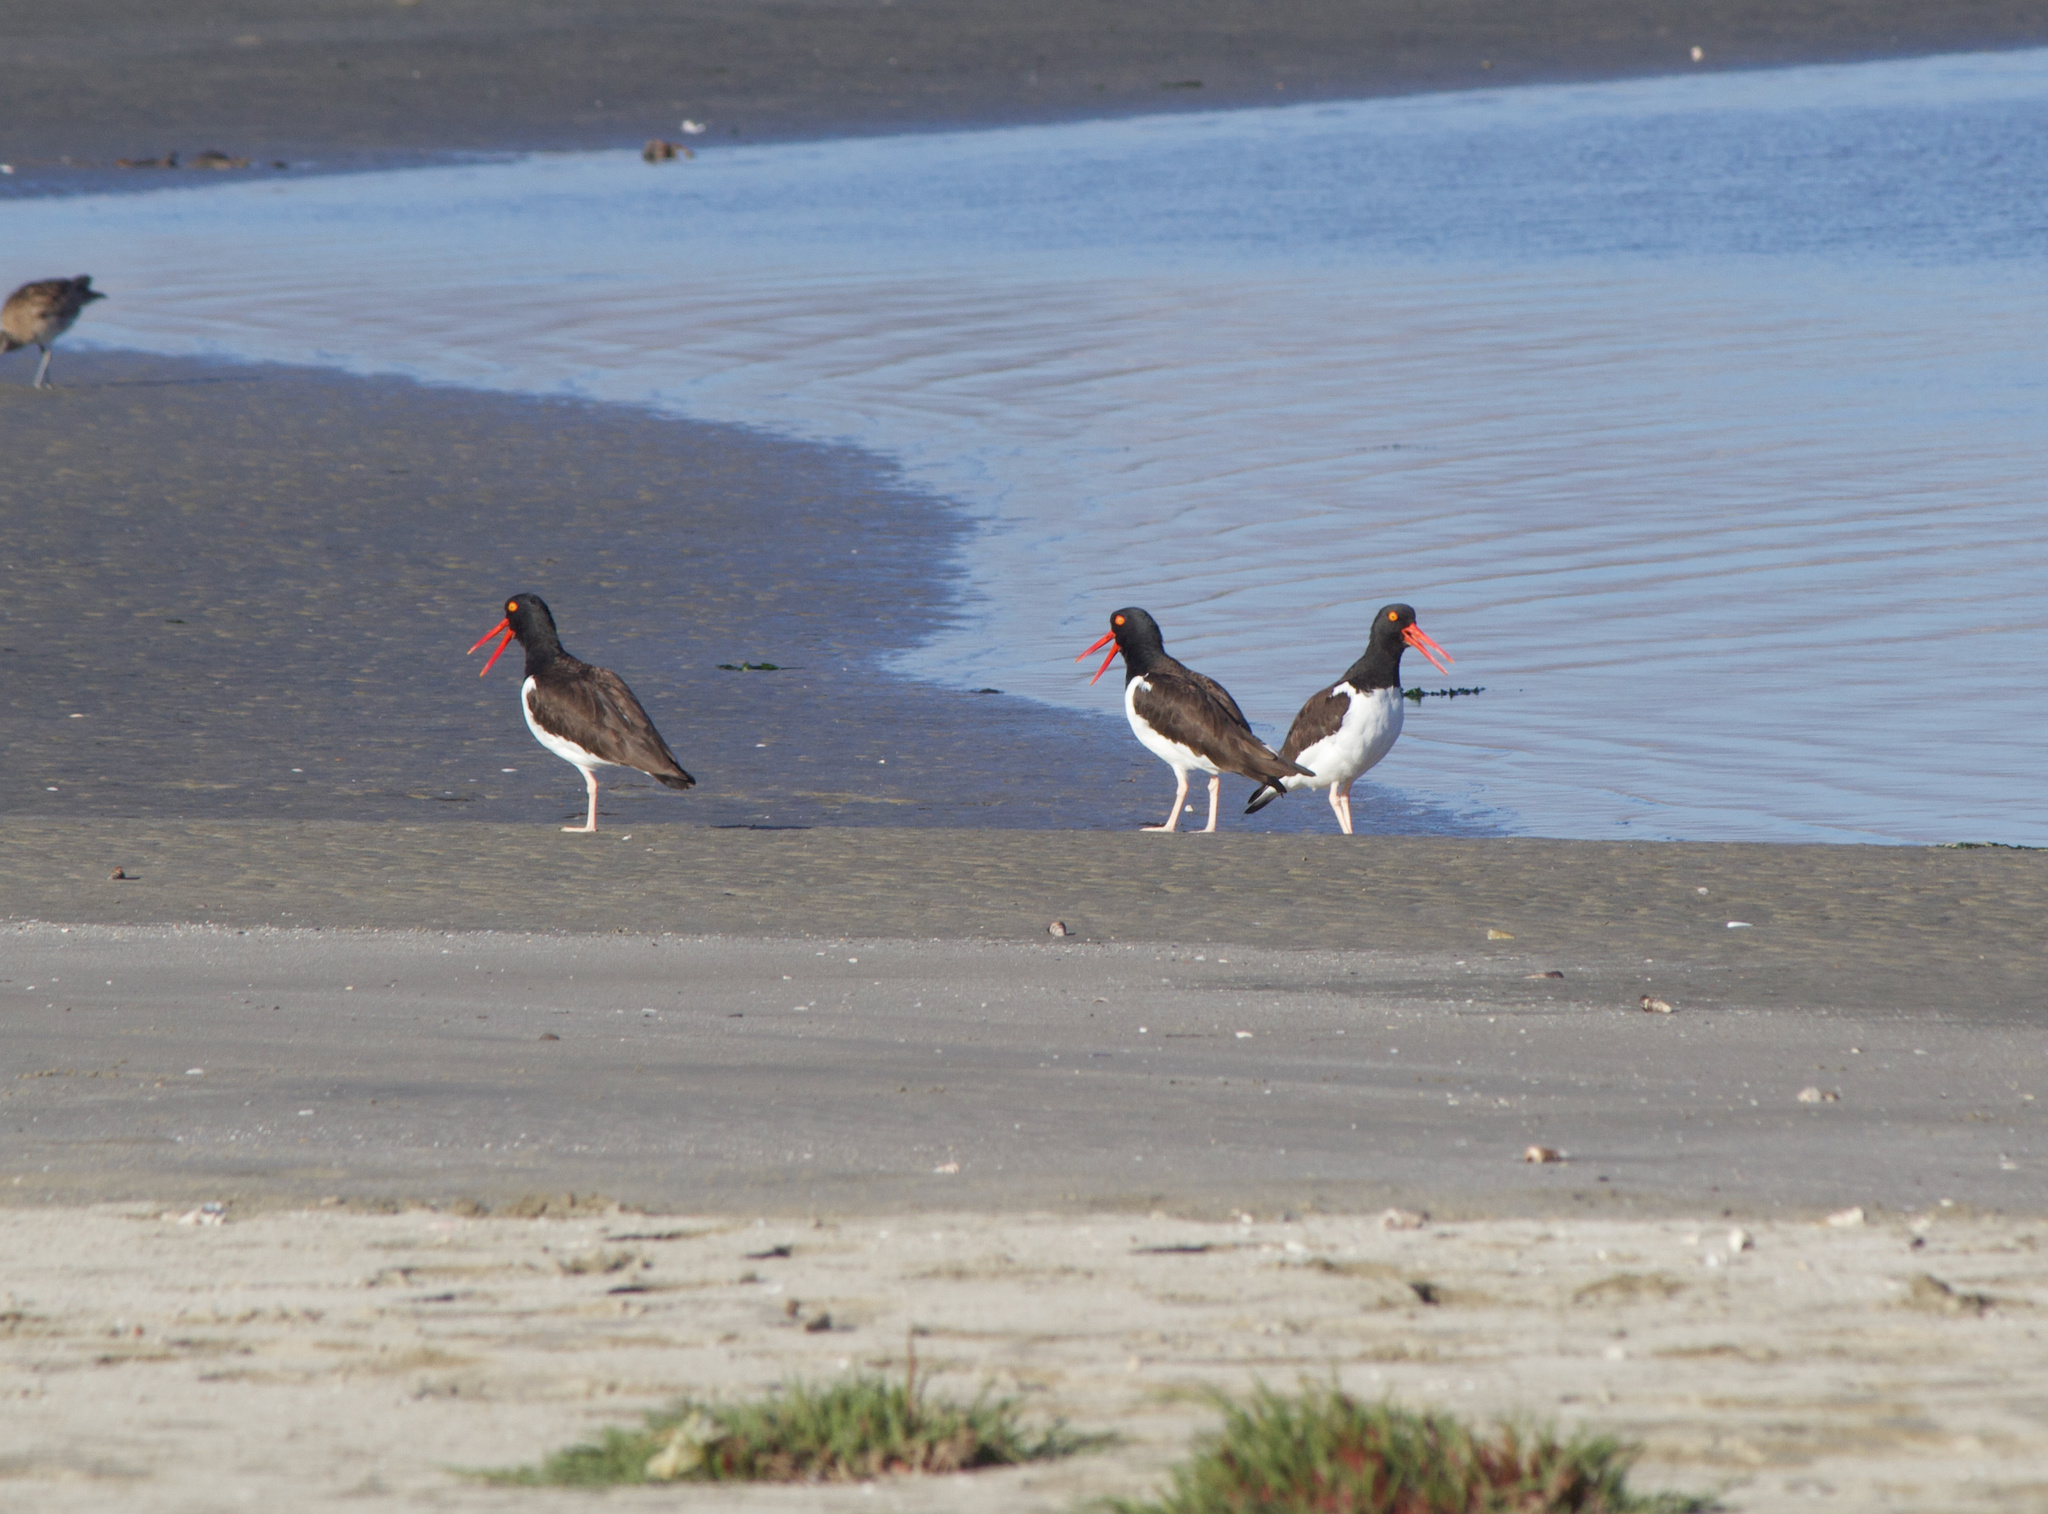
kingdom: Animalia
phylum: Chordata
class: Aves
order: Charadriiformes
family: Haematopodidae
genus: Haematopus
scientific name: Haematopus palliatus
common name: American oystercatcher
